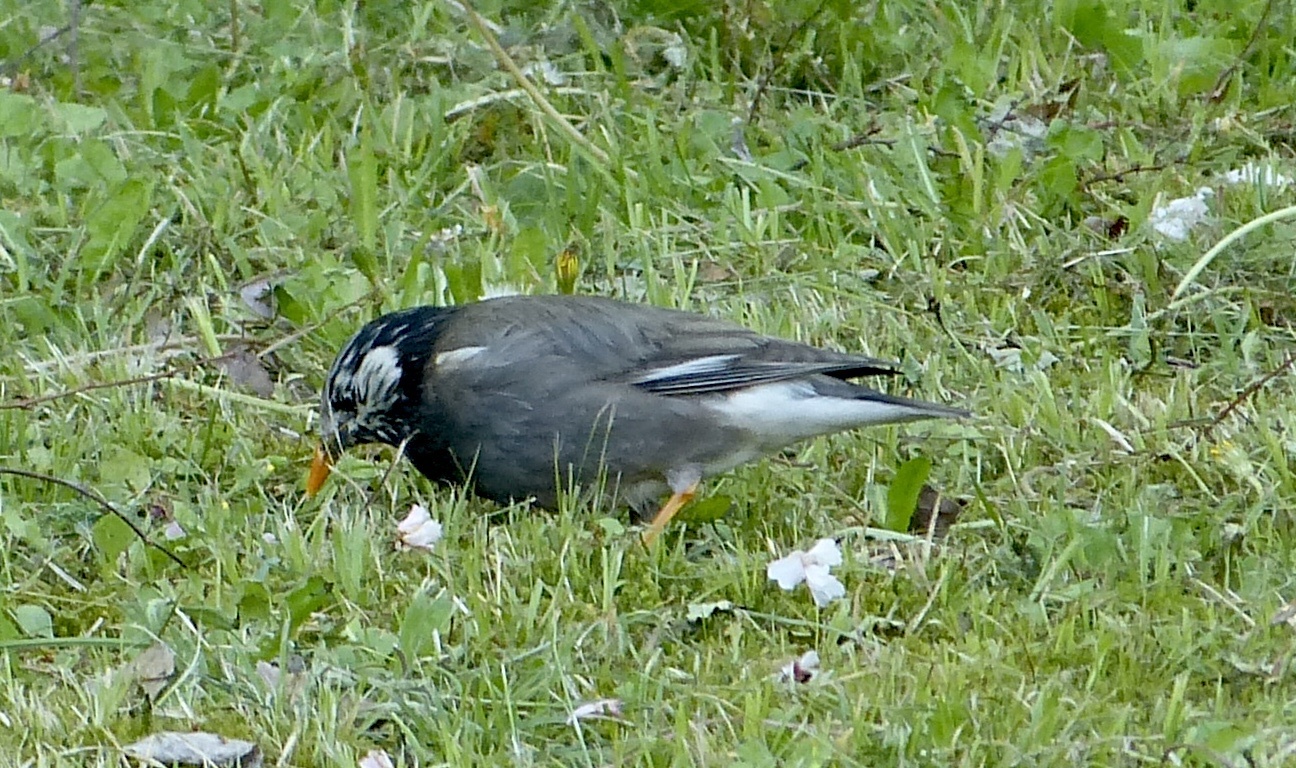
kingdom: Animalia
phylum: Chordata
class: Aves
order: Passeriformes
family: Sturnidae
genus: Spodiopsar
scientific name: Spodiopsar cineraceus
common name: White-cheeked starling
